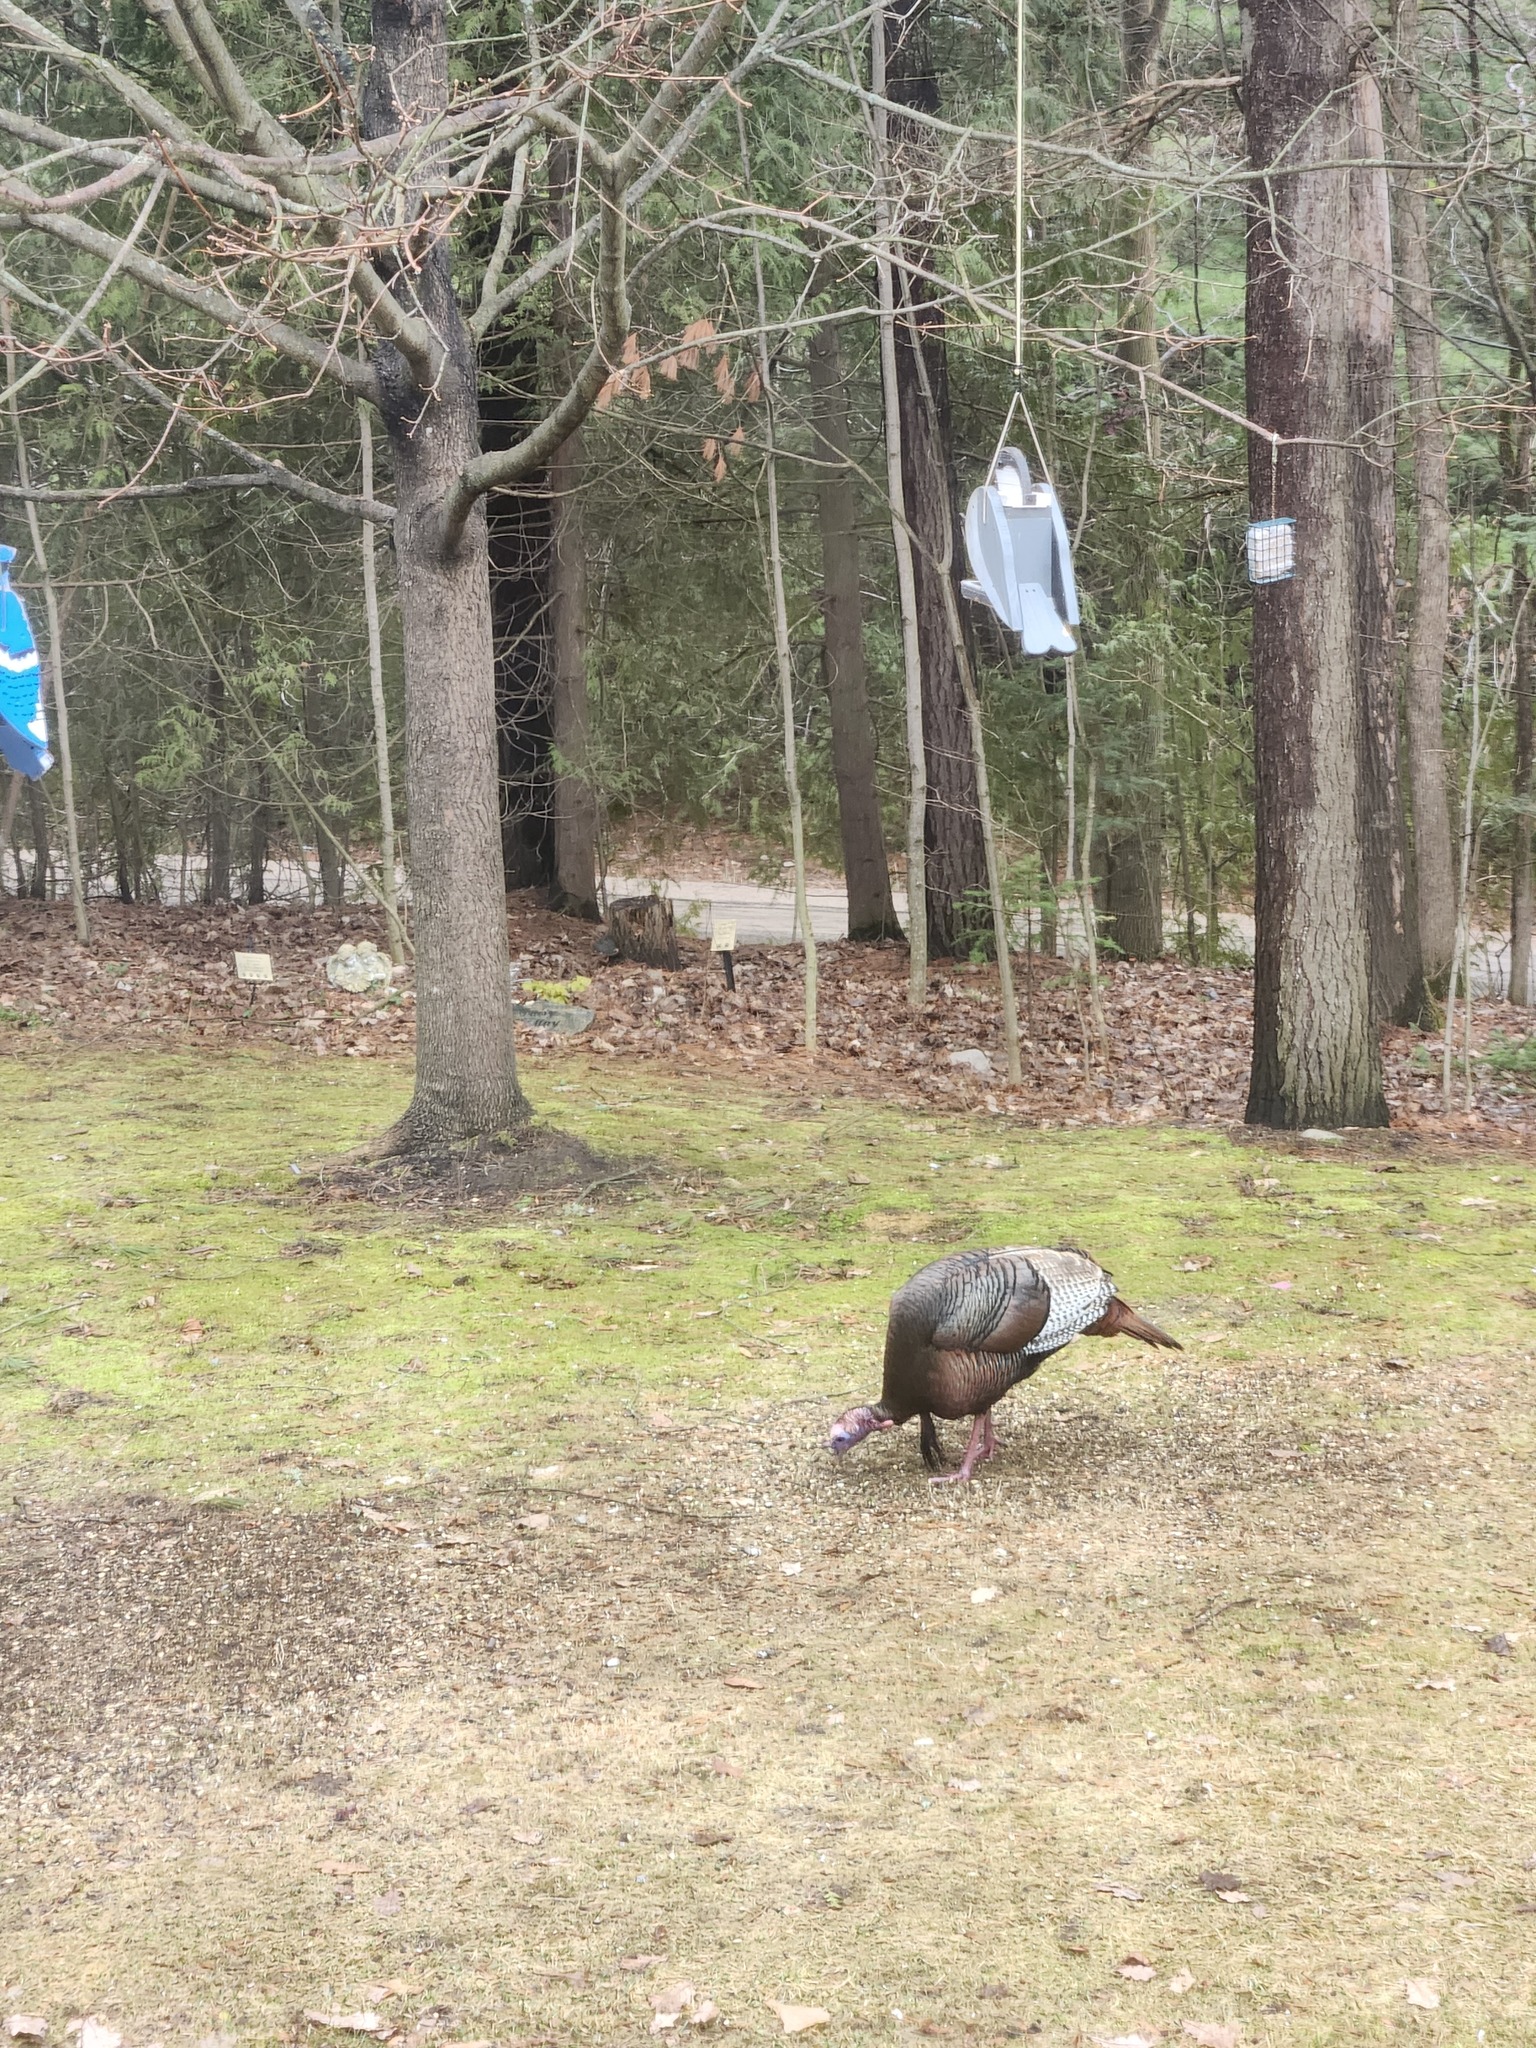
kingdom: Animalia
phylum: Chordata
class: Aves
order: Galliformes
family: Phasianidae
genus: Meleagris
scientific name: Meleagris gallopavo
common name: Wild turkey
